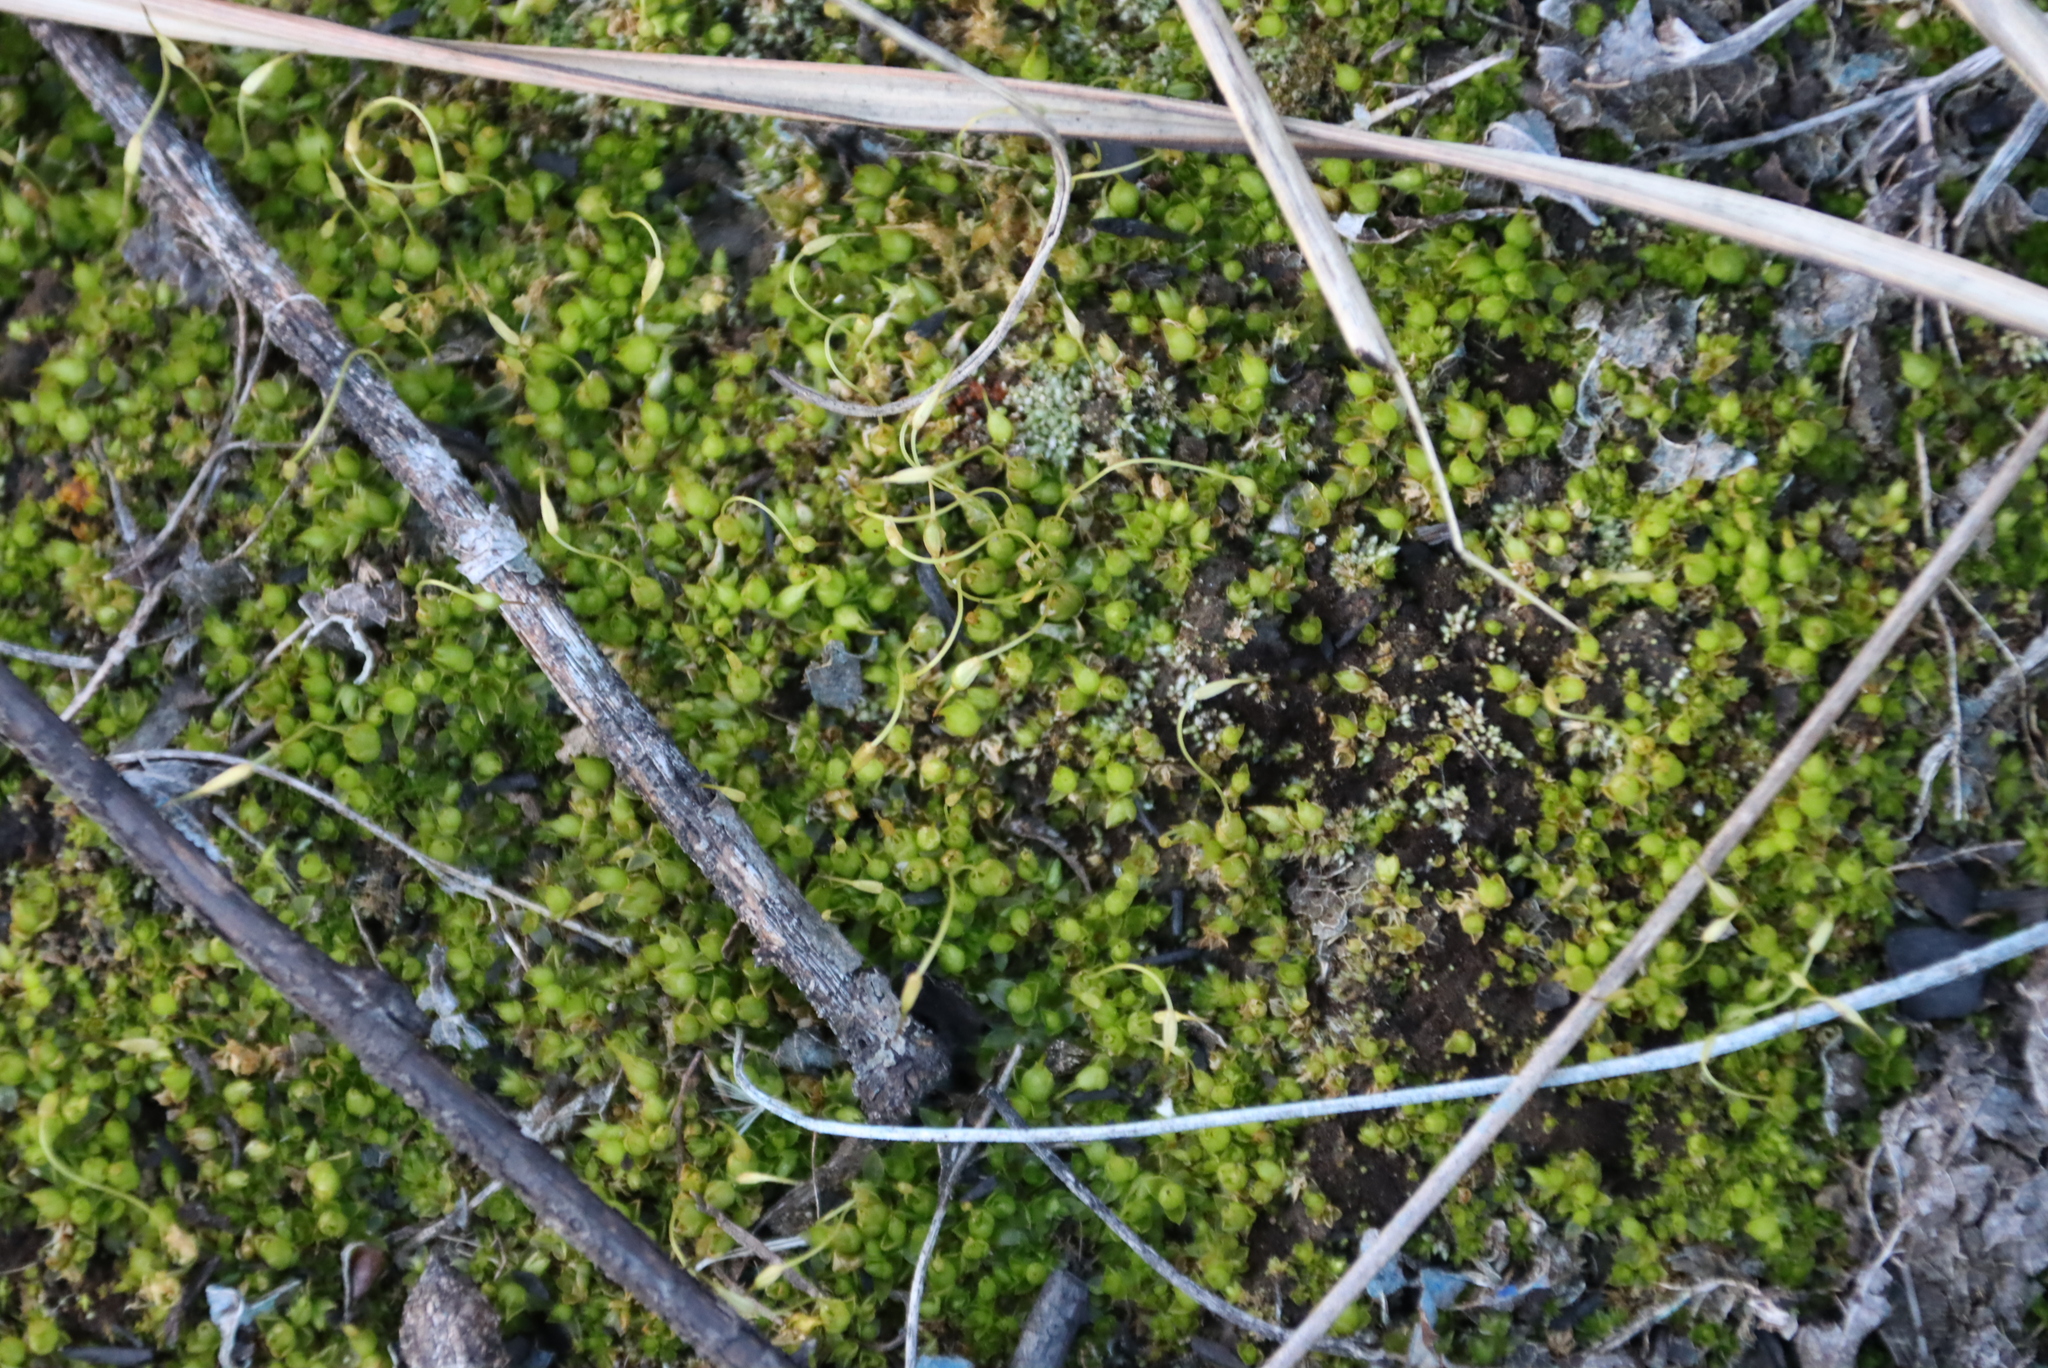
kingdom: Plantae
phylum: Bryophyta
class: Bryopsida
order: Funariales
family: Funariaceae
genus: Funaria
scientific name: Funaria hygrometrica
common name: Common cord moss
